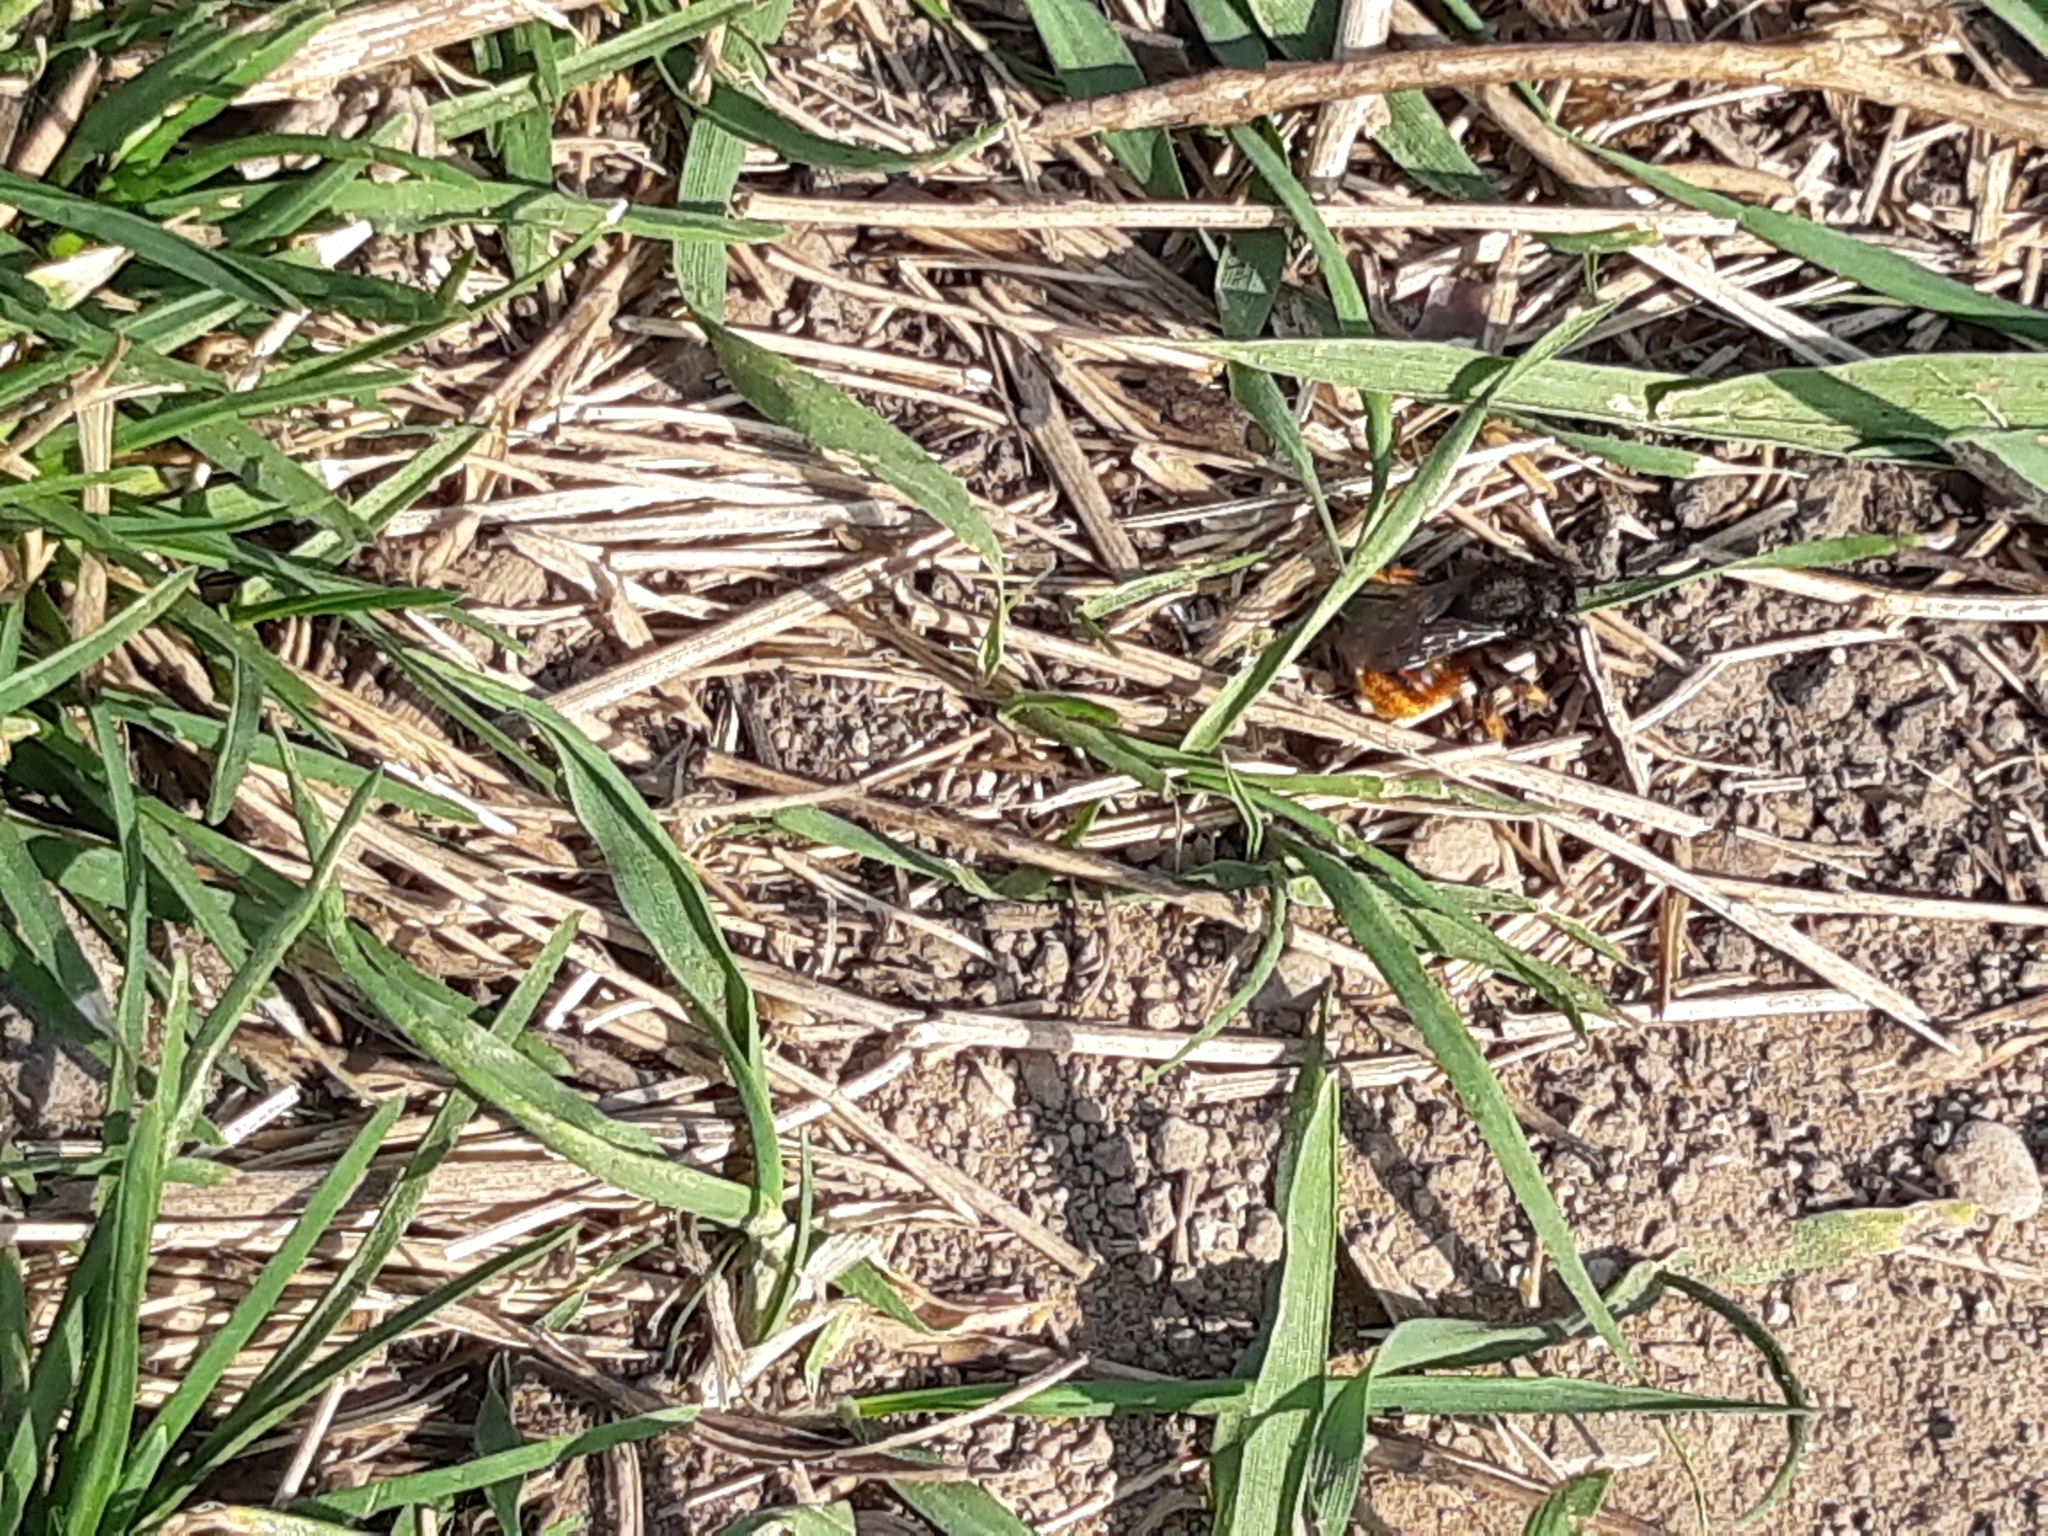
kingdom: Animalia
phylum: Arthropoda
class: Insecta
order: Hymenoptera
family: Megachilidae
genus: Osmia
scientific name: Osmia bicolor
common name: Red-tailed mason bee
